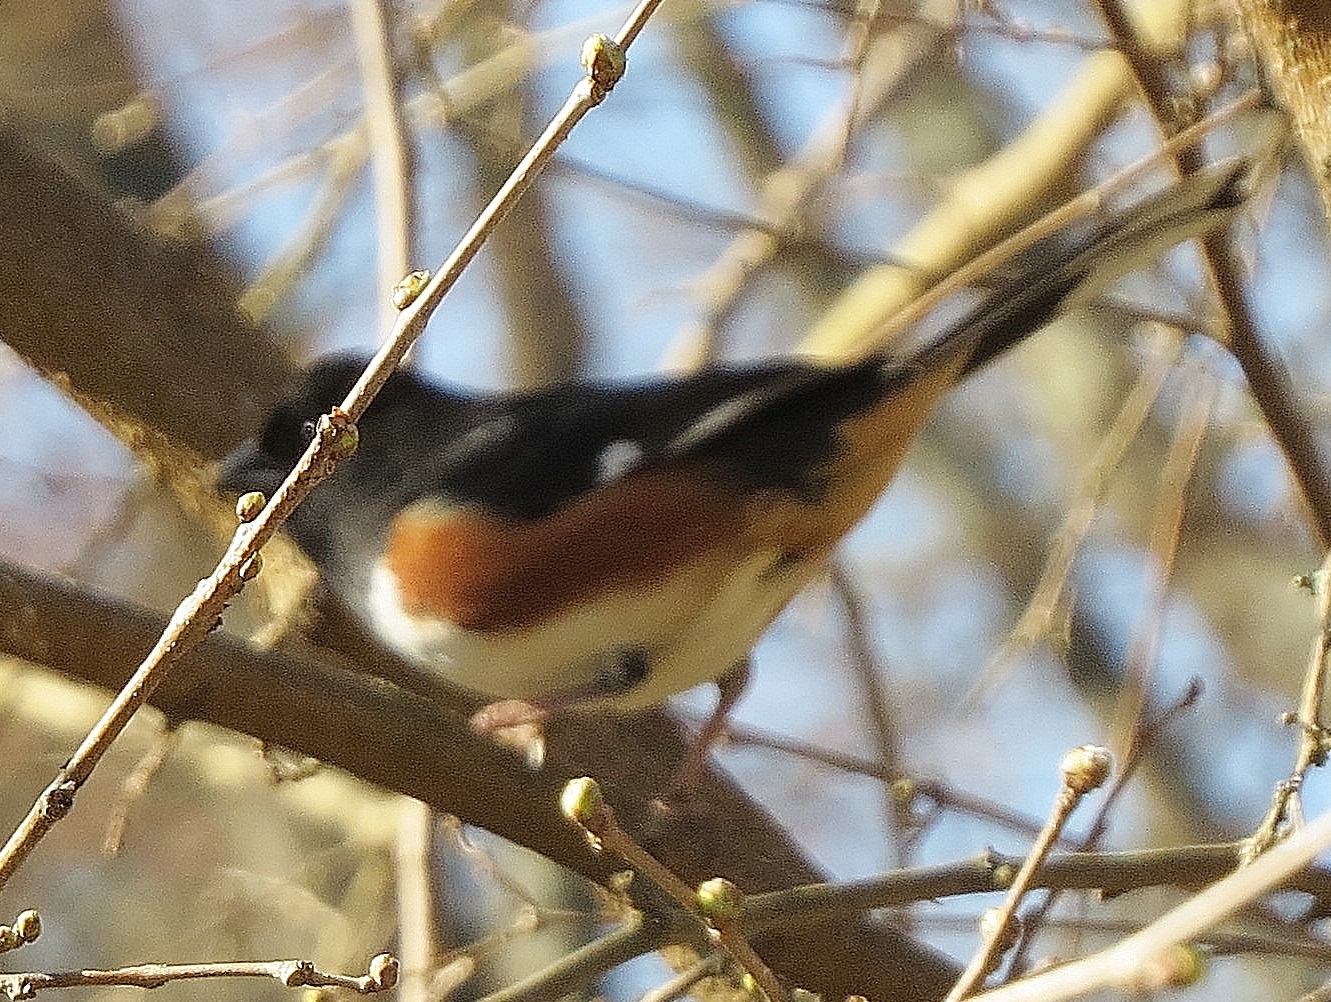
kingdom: Animalia
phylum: Chordata
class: Aves
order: Passeriformes
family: Passerellidae
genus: Pipilo
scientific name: Pipilo erythrophthalmus
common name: Eastern towhee
